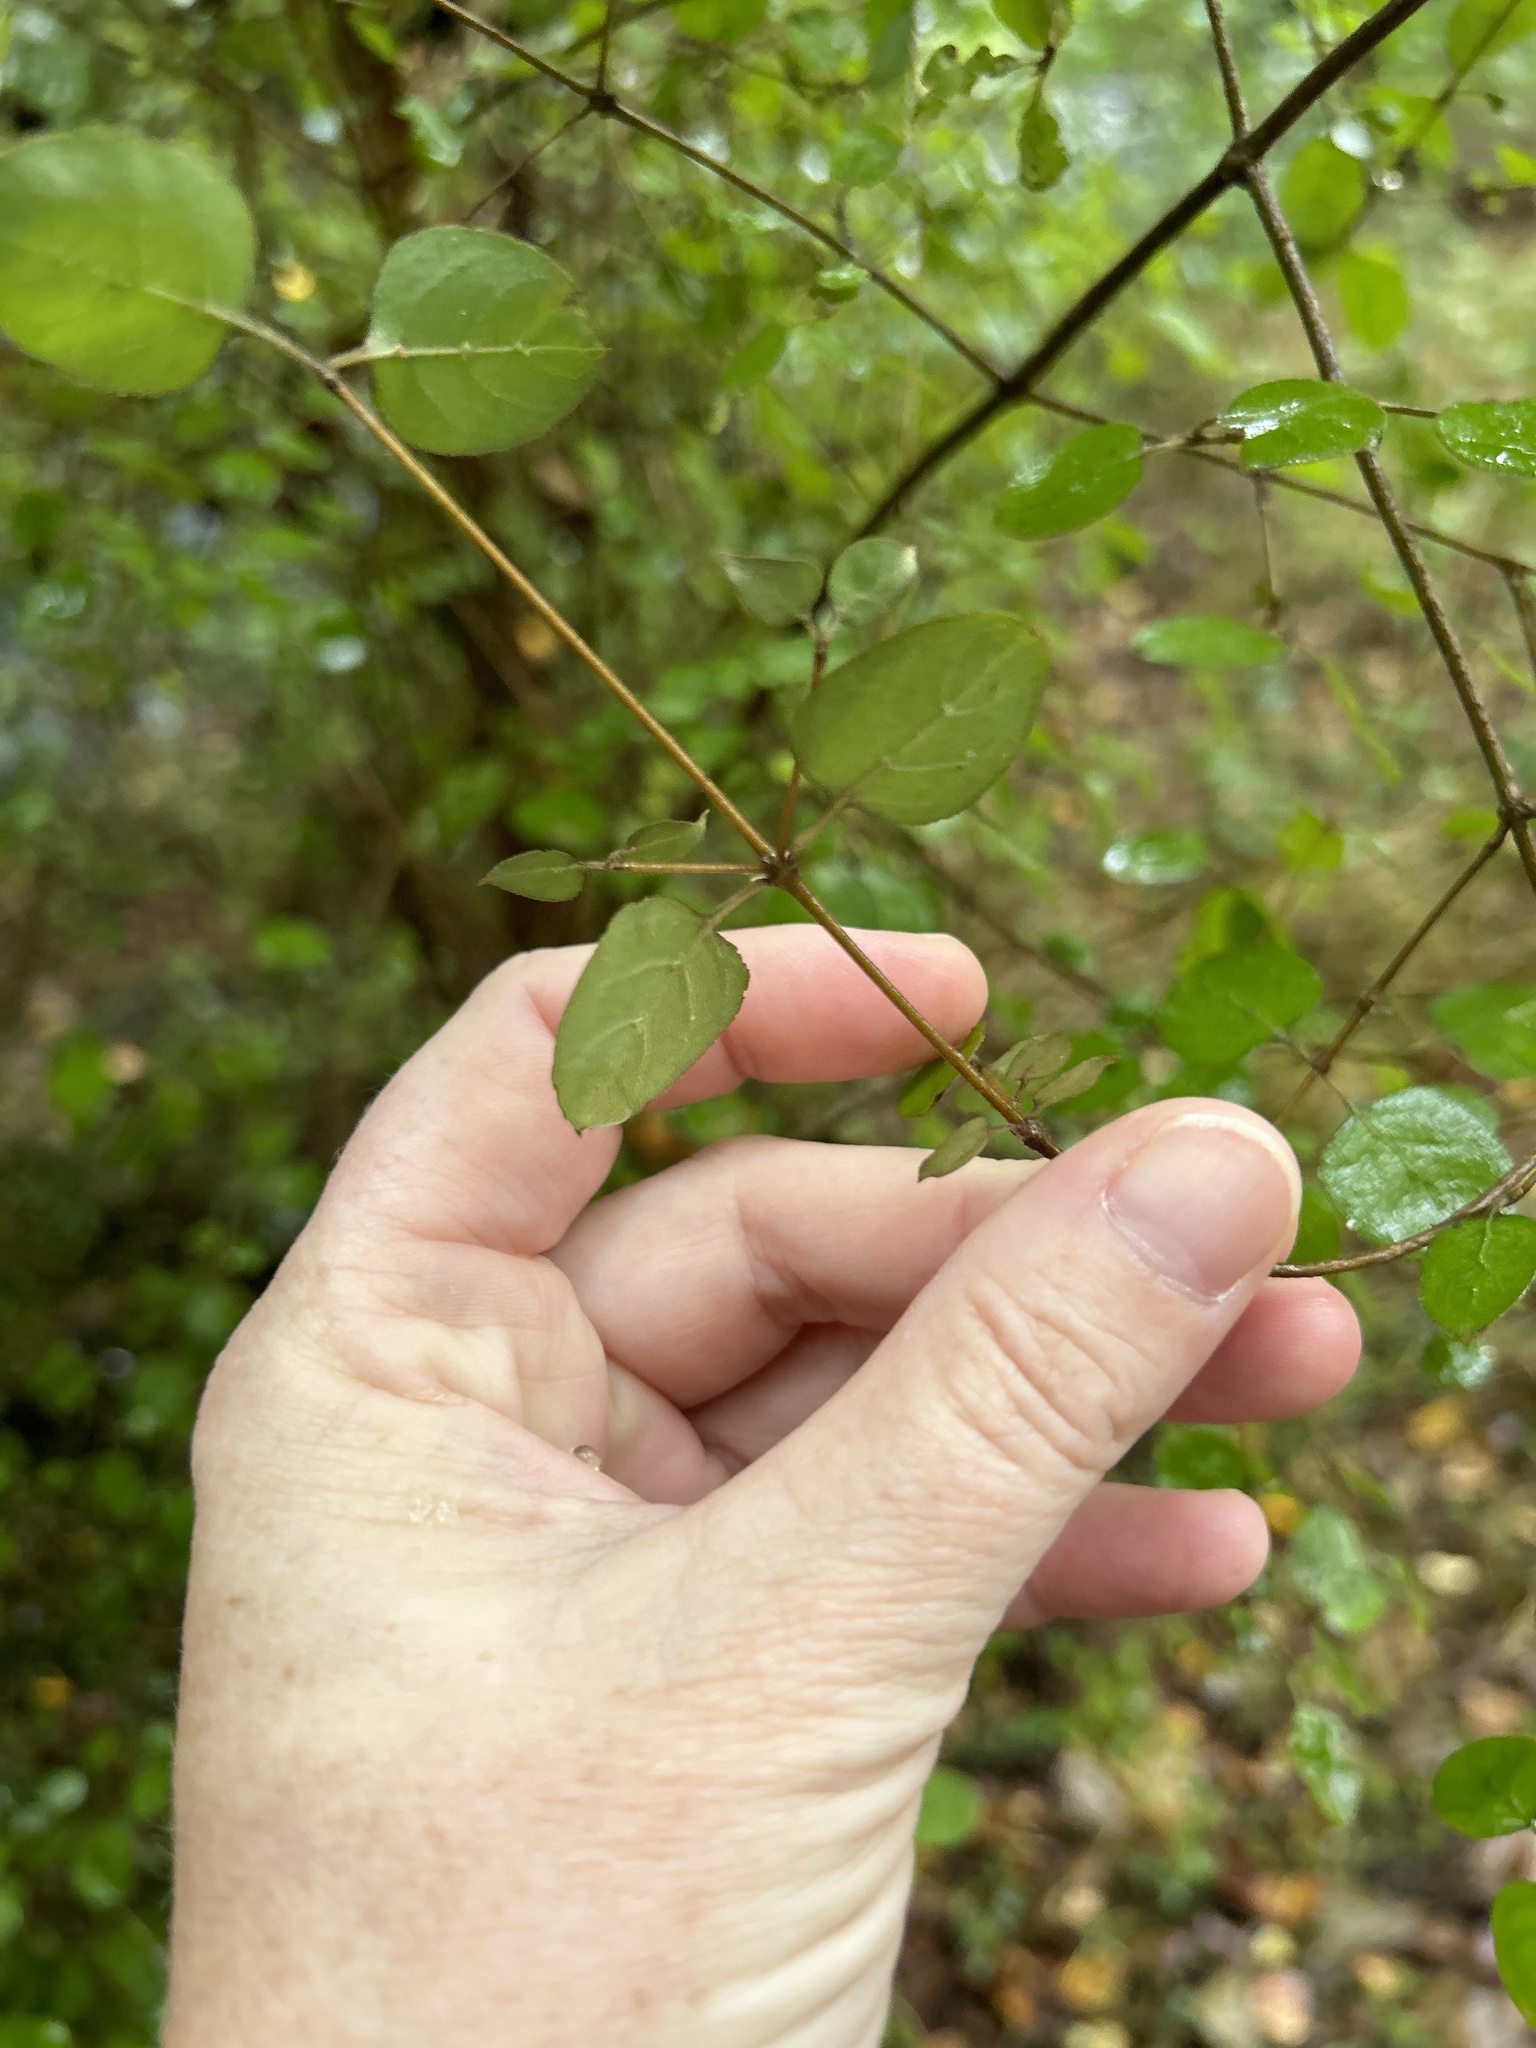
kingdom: Plantae
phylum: Tracheophyta
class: Magnoliopsida
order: Gentianales
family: Rubiaceae
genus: Coprosma
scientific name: Coprosma rotundifolia
